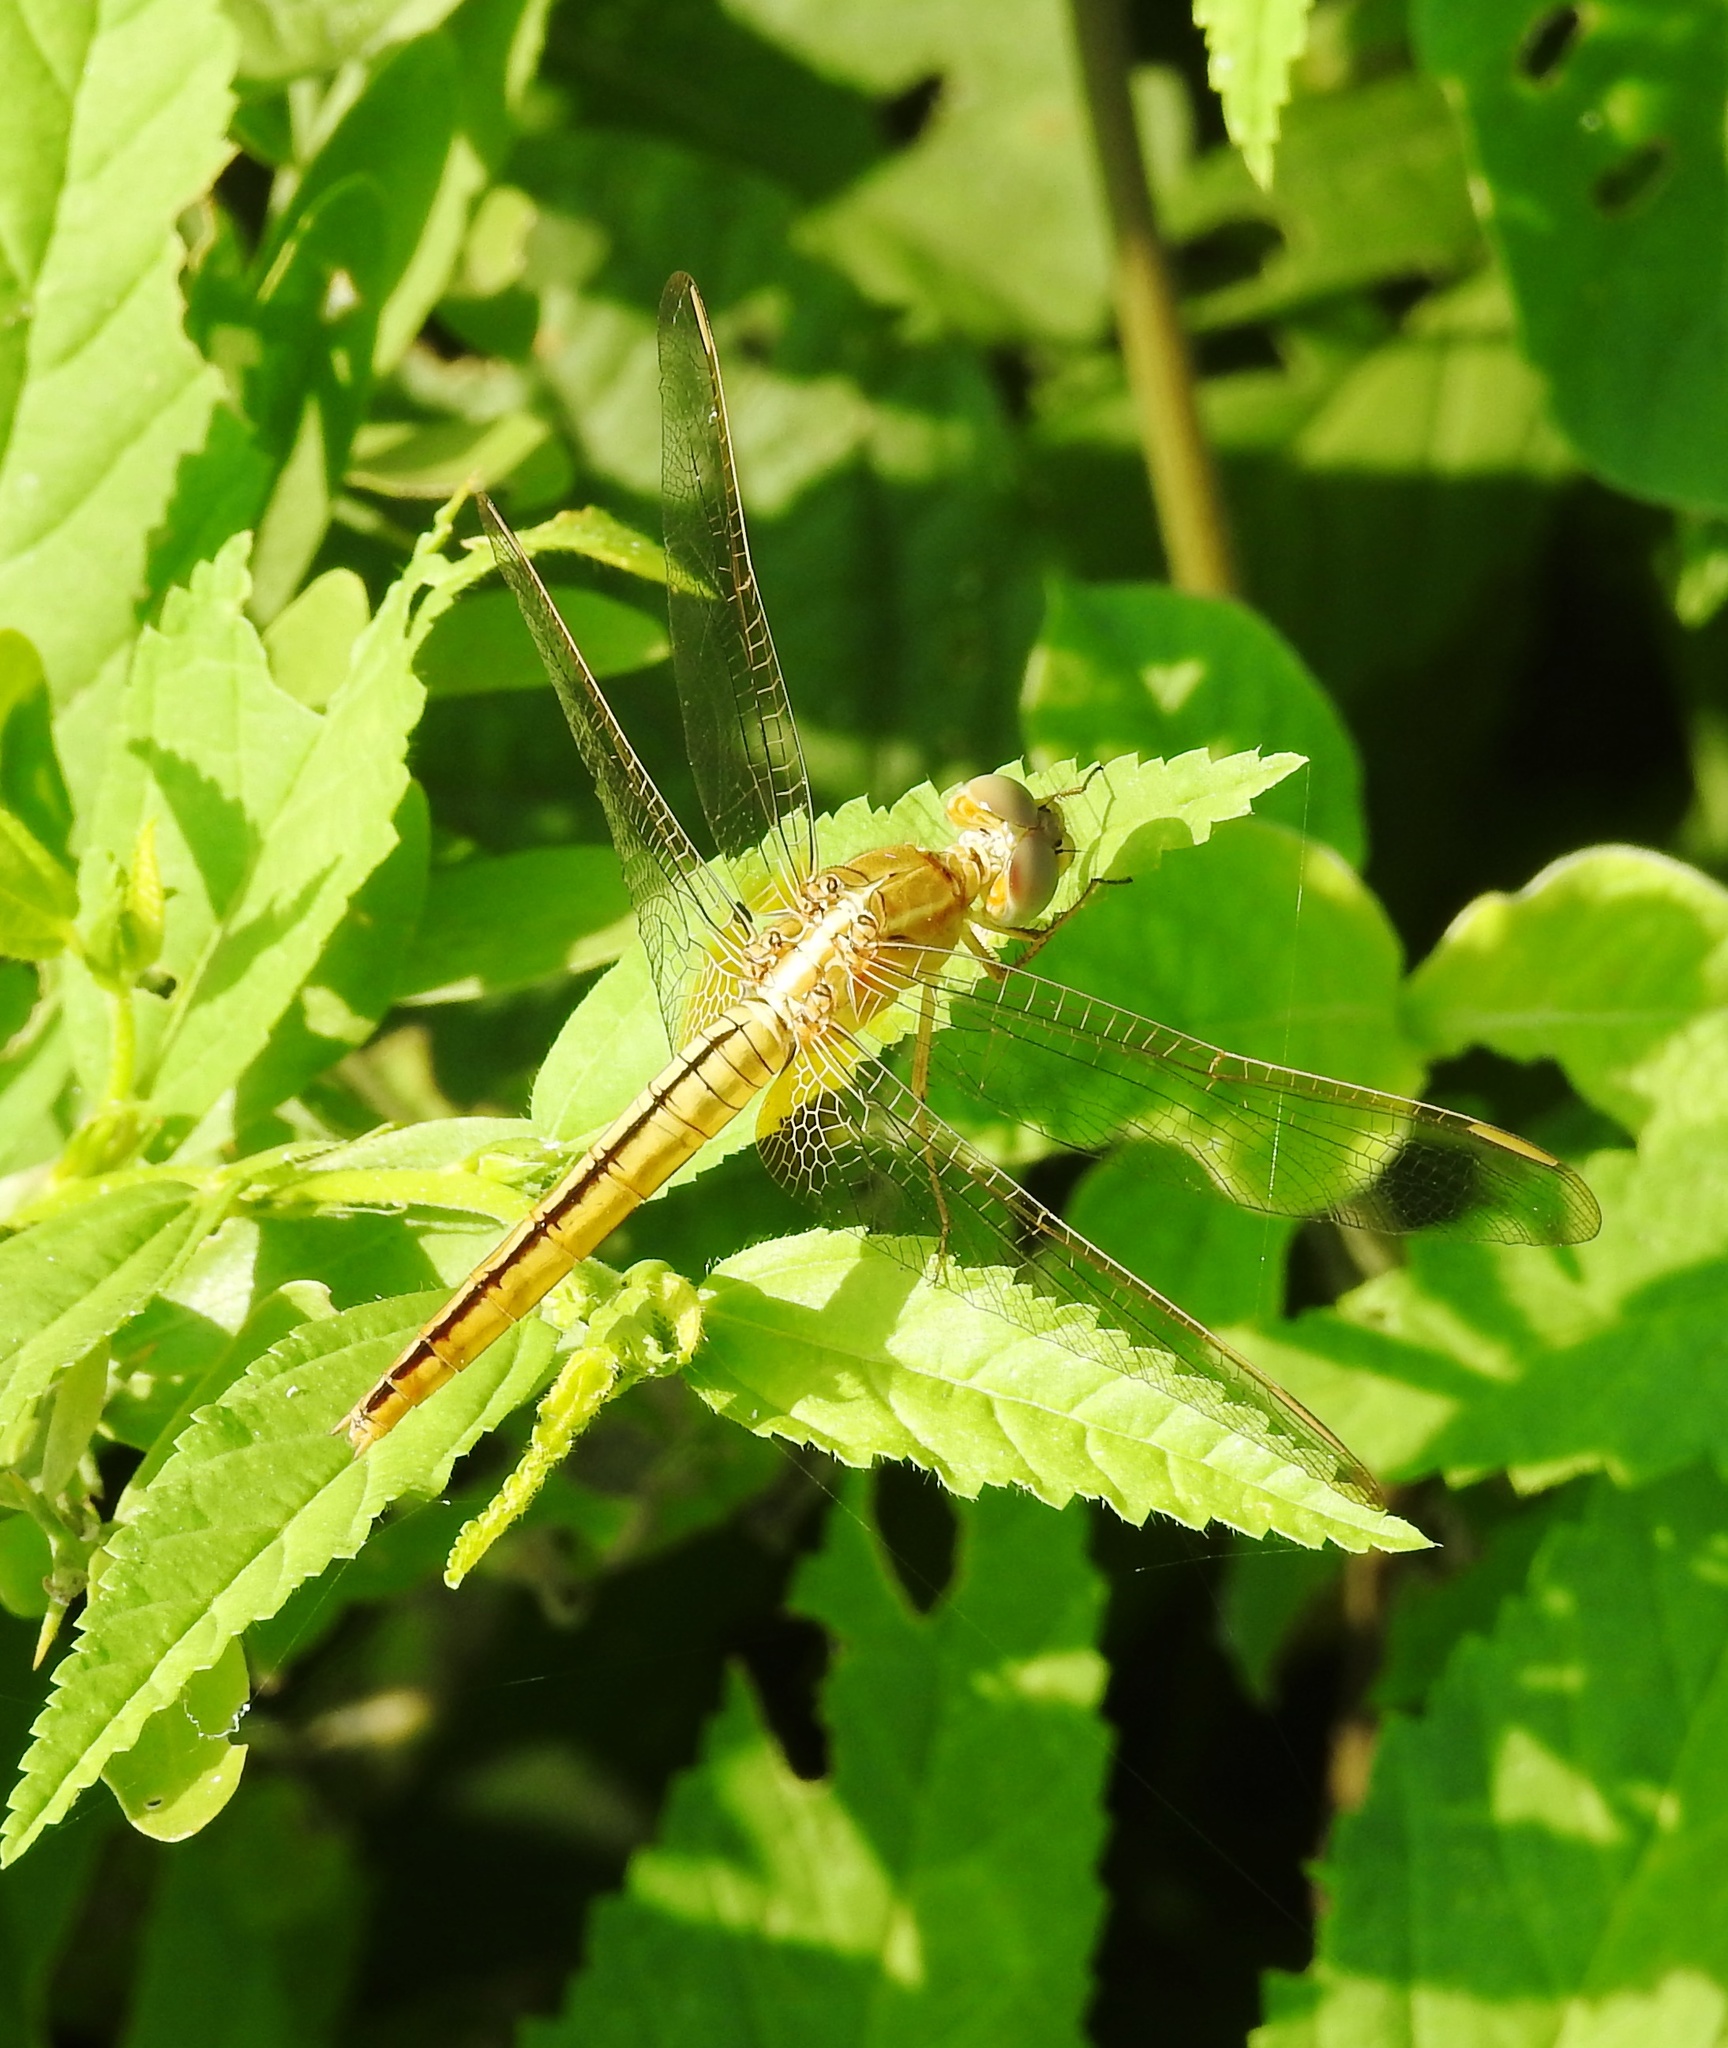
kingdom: Animalia
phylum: Arthropoda
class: Insecta
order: Odonata
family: Libellulidae
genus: Crocothemis
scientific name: Crocothemis servilia
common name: Scarlet skimmer
